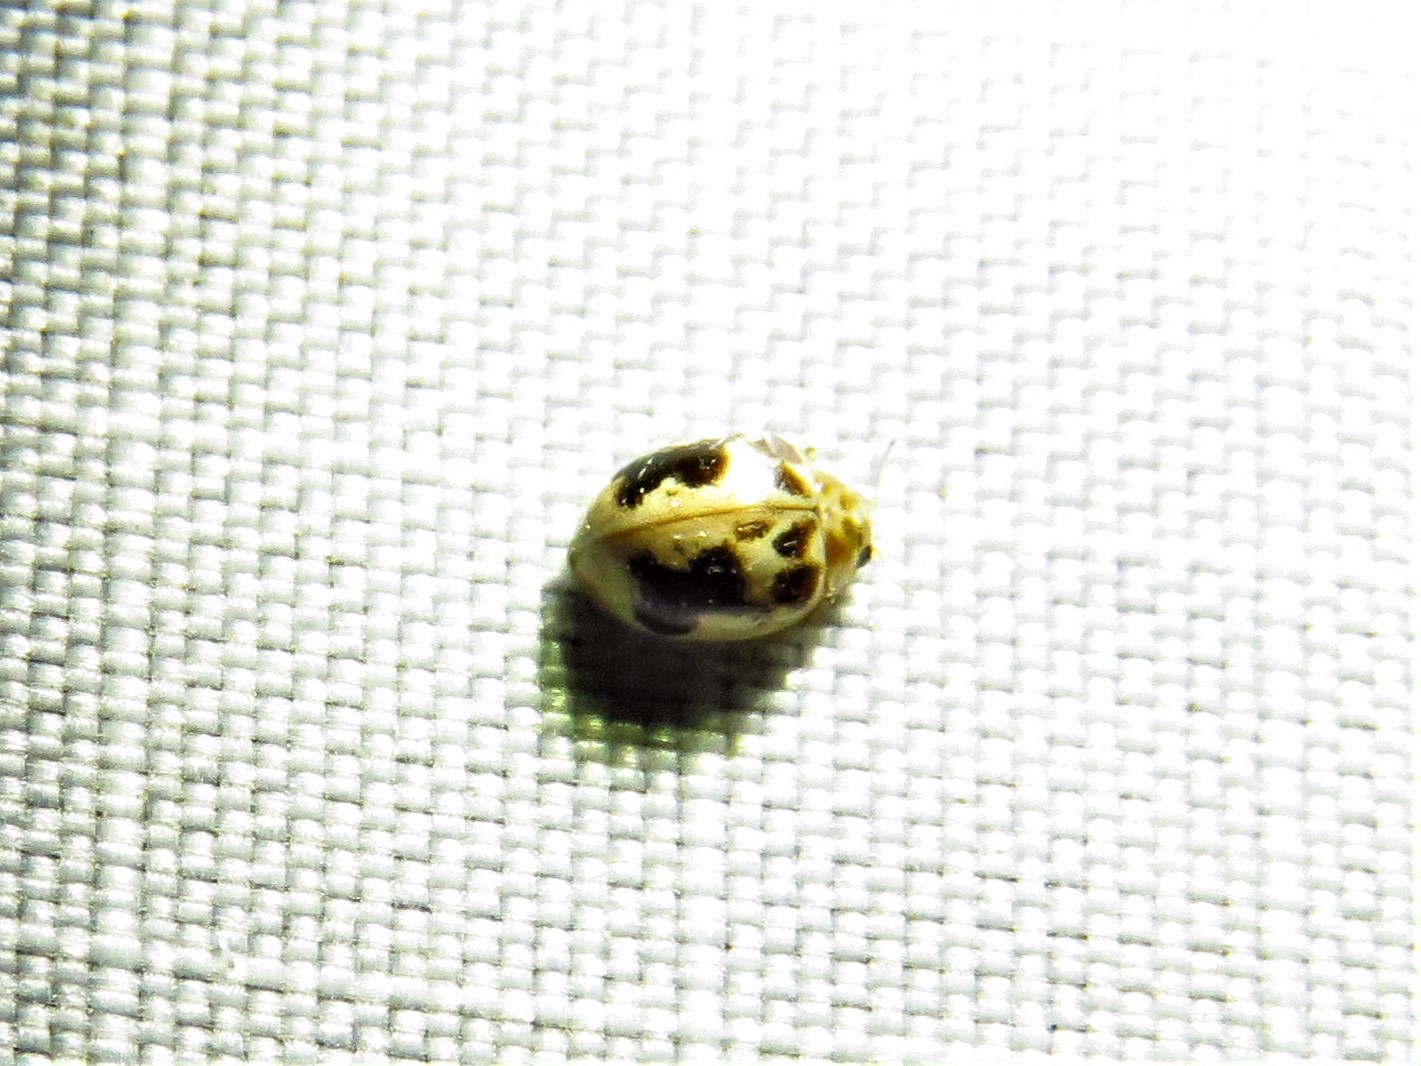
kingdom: Animalia
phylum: Arthropoda
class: Insecta
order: Coleoptera
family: Coccinellidae
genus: Psyllobora
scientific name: Psyllobora renifer
